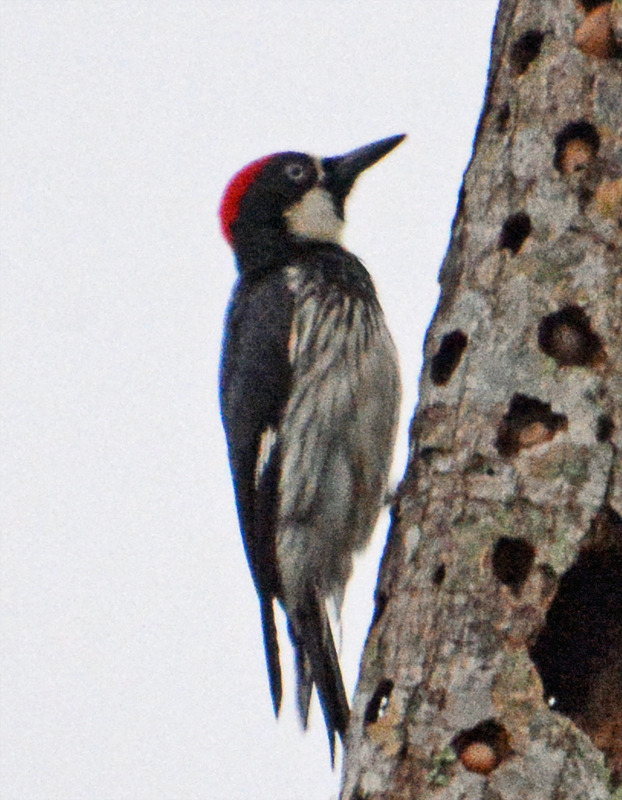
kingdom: Animalia
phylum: Chordata
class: Aves
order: Piciformes
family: Picidae
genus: Melanerpes
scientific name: Melanerpes formicivorus
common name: Acorn woodpecker
